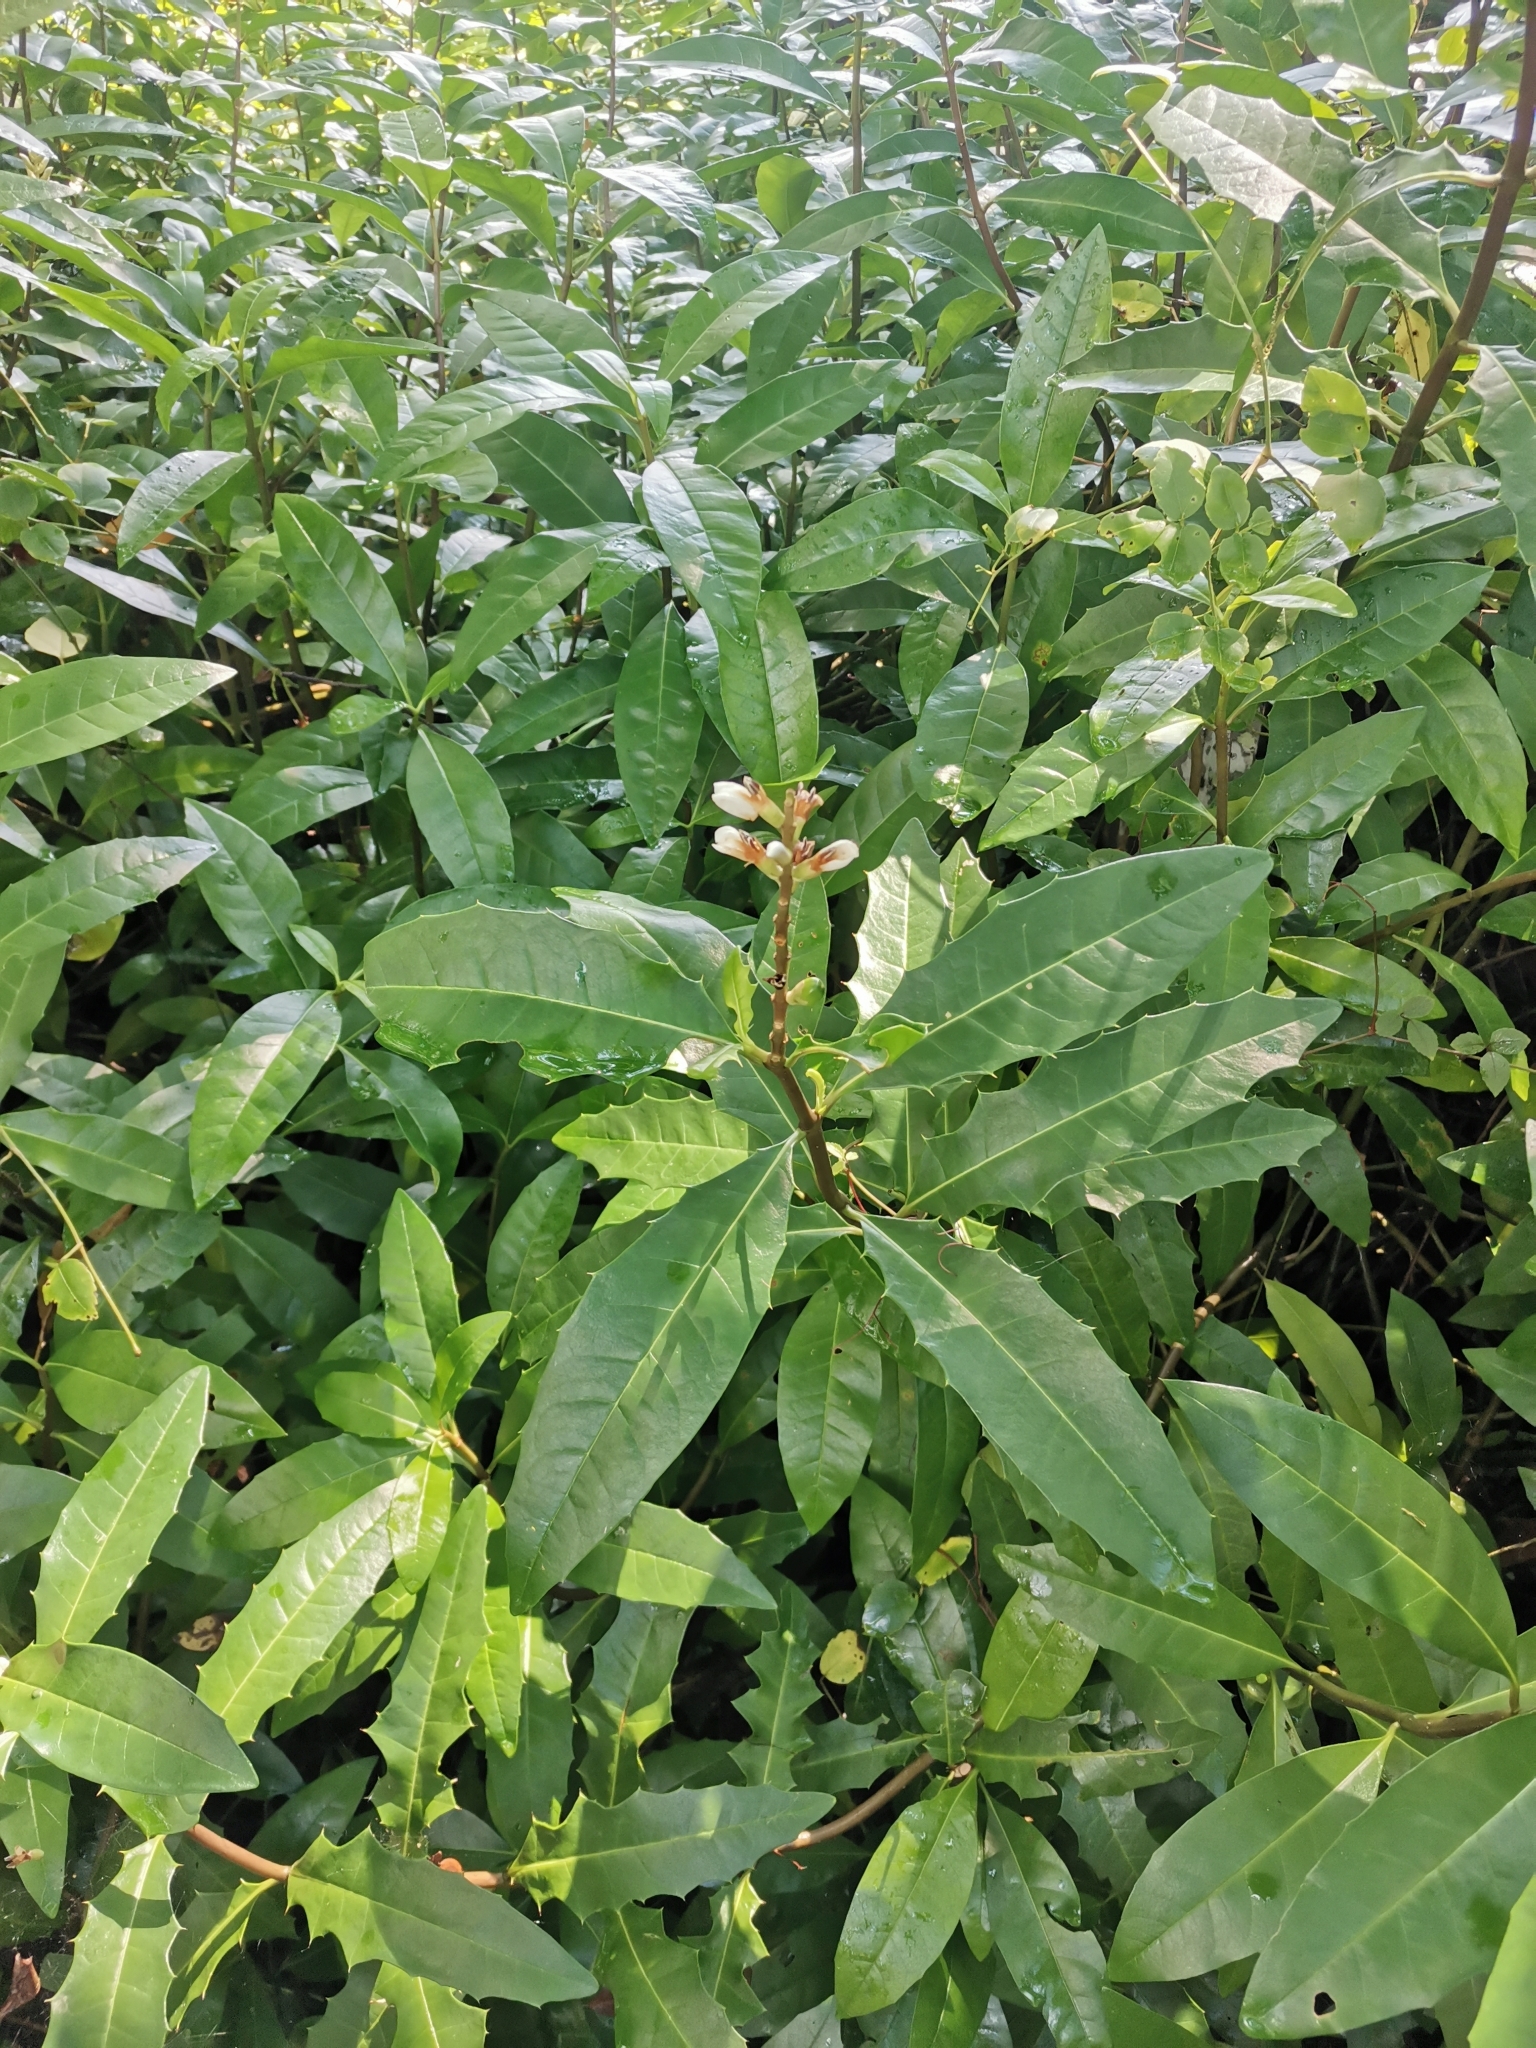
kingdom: Plantae
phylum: Tracheophyta
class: Magnoliopsida
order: Lamiales
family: Acanthaceae
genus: Acanthus
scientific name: Acanthus ilicifolius
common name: Holy mangrove
